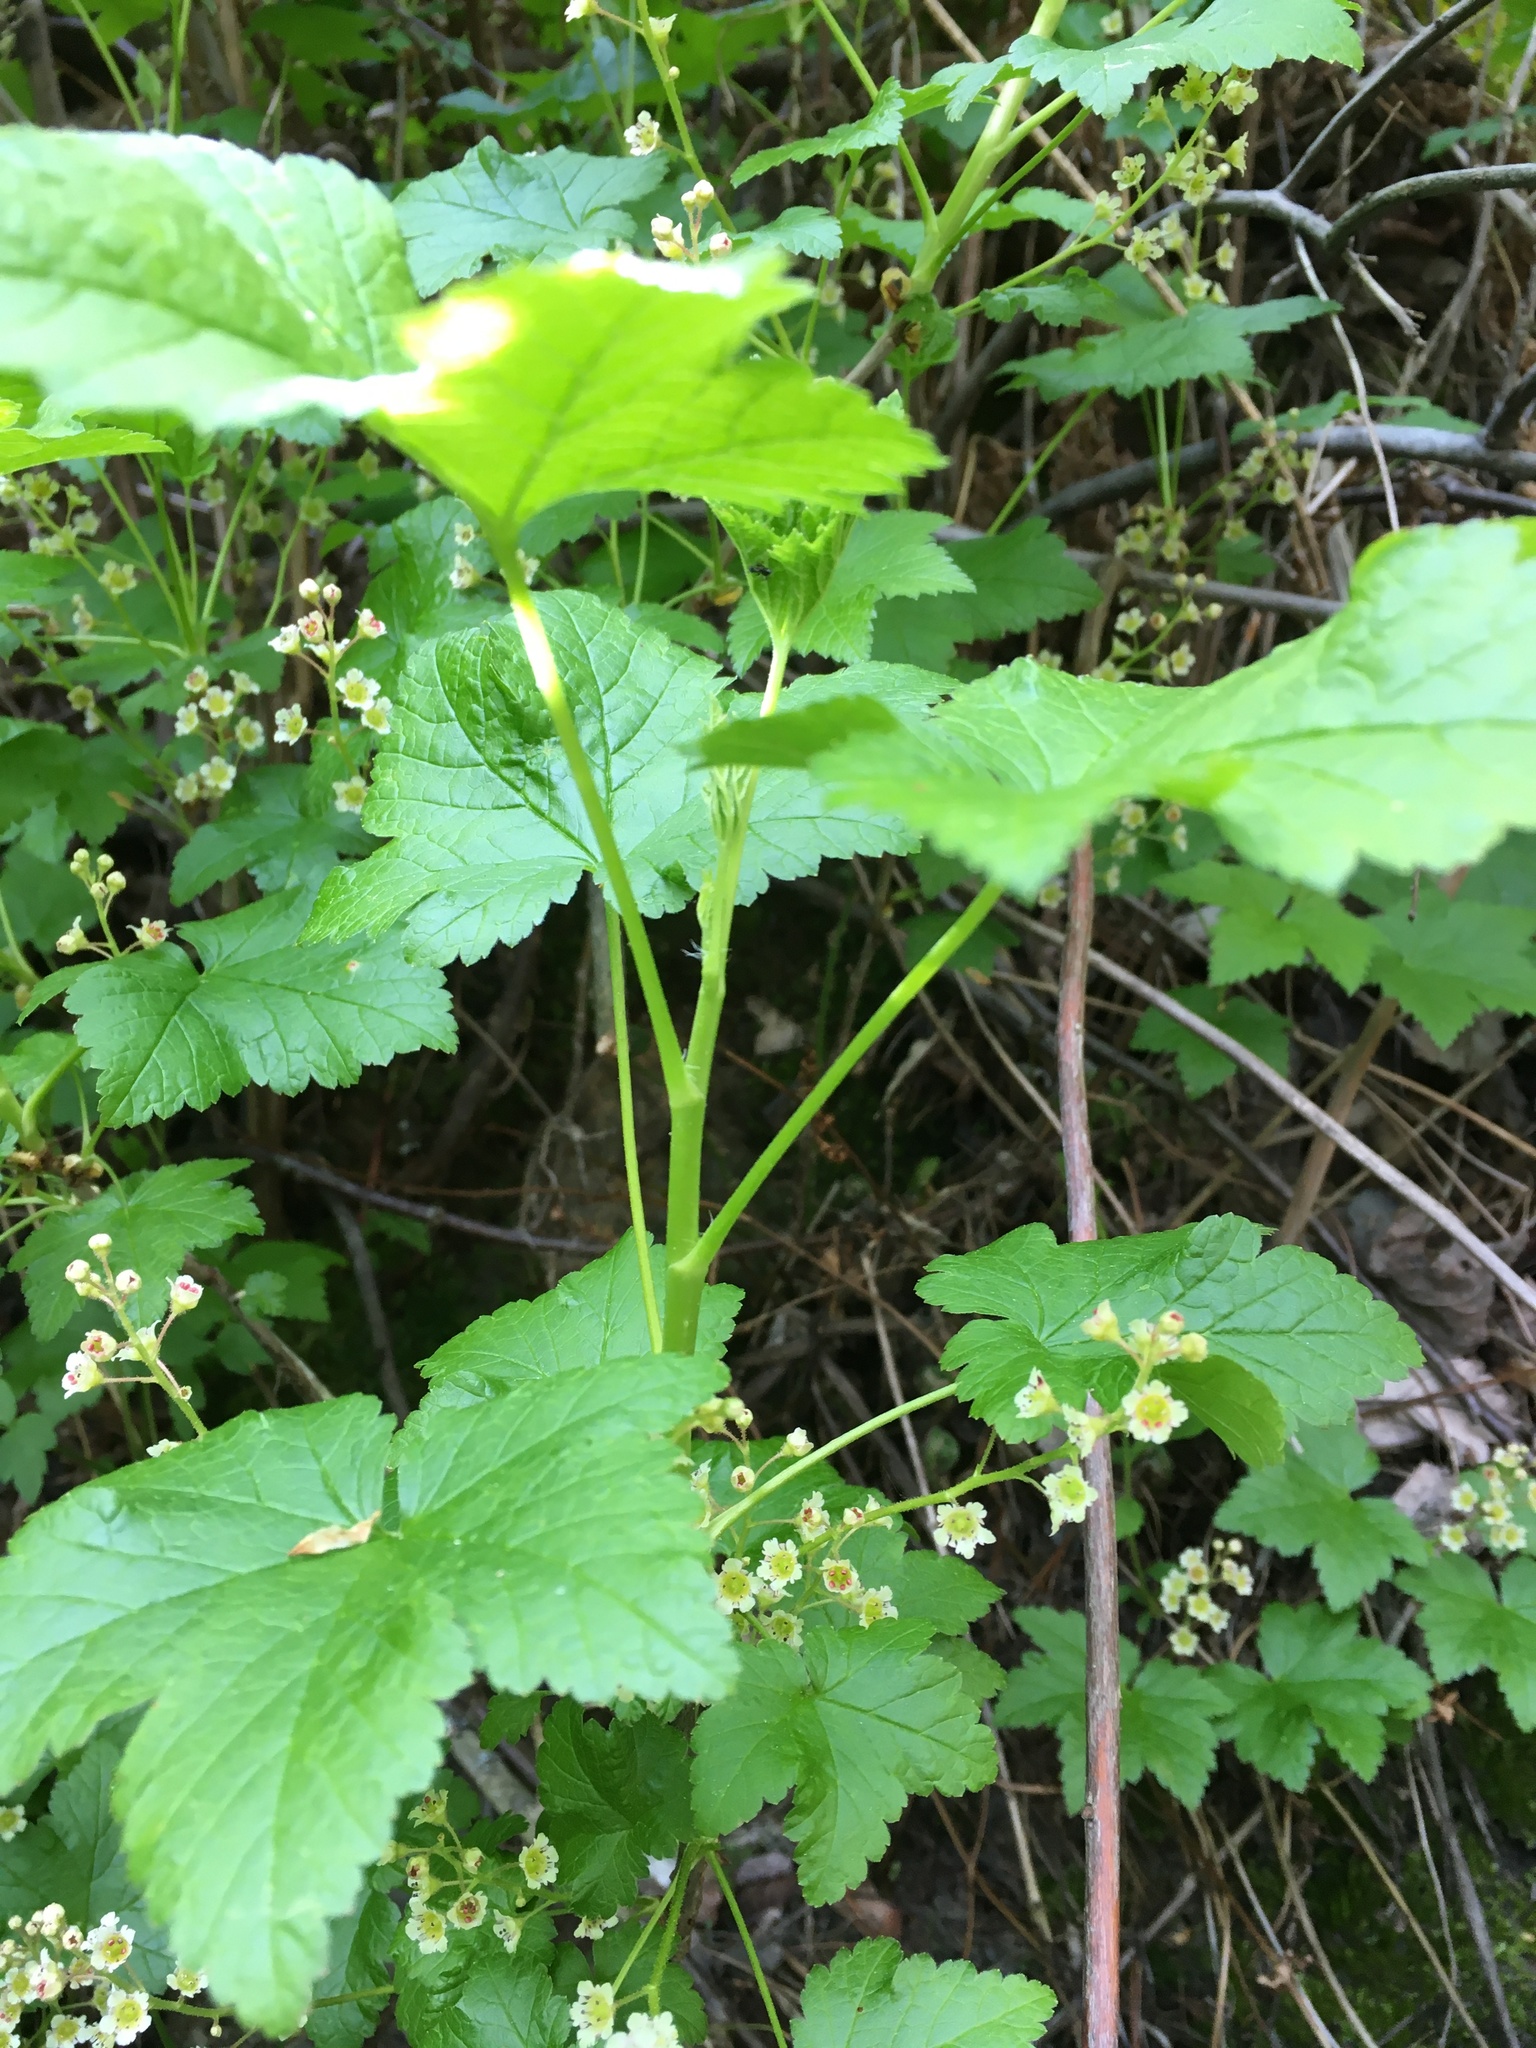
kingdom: Plantae
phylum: Tracheophyta
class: Magnoliopsida
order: Saxifragales
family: Grossulariaceae
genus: Ribes
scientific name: Ribes glandulosum
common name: Skunk currant
